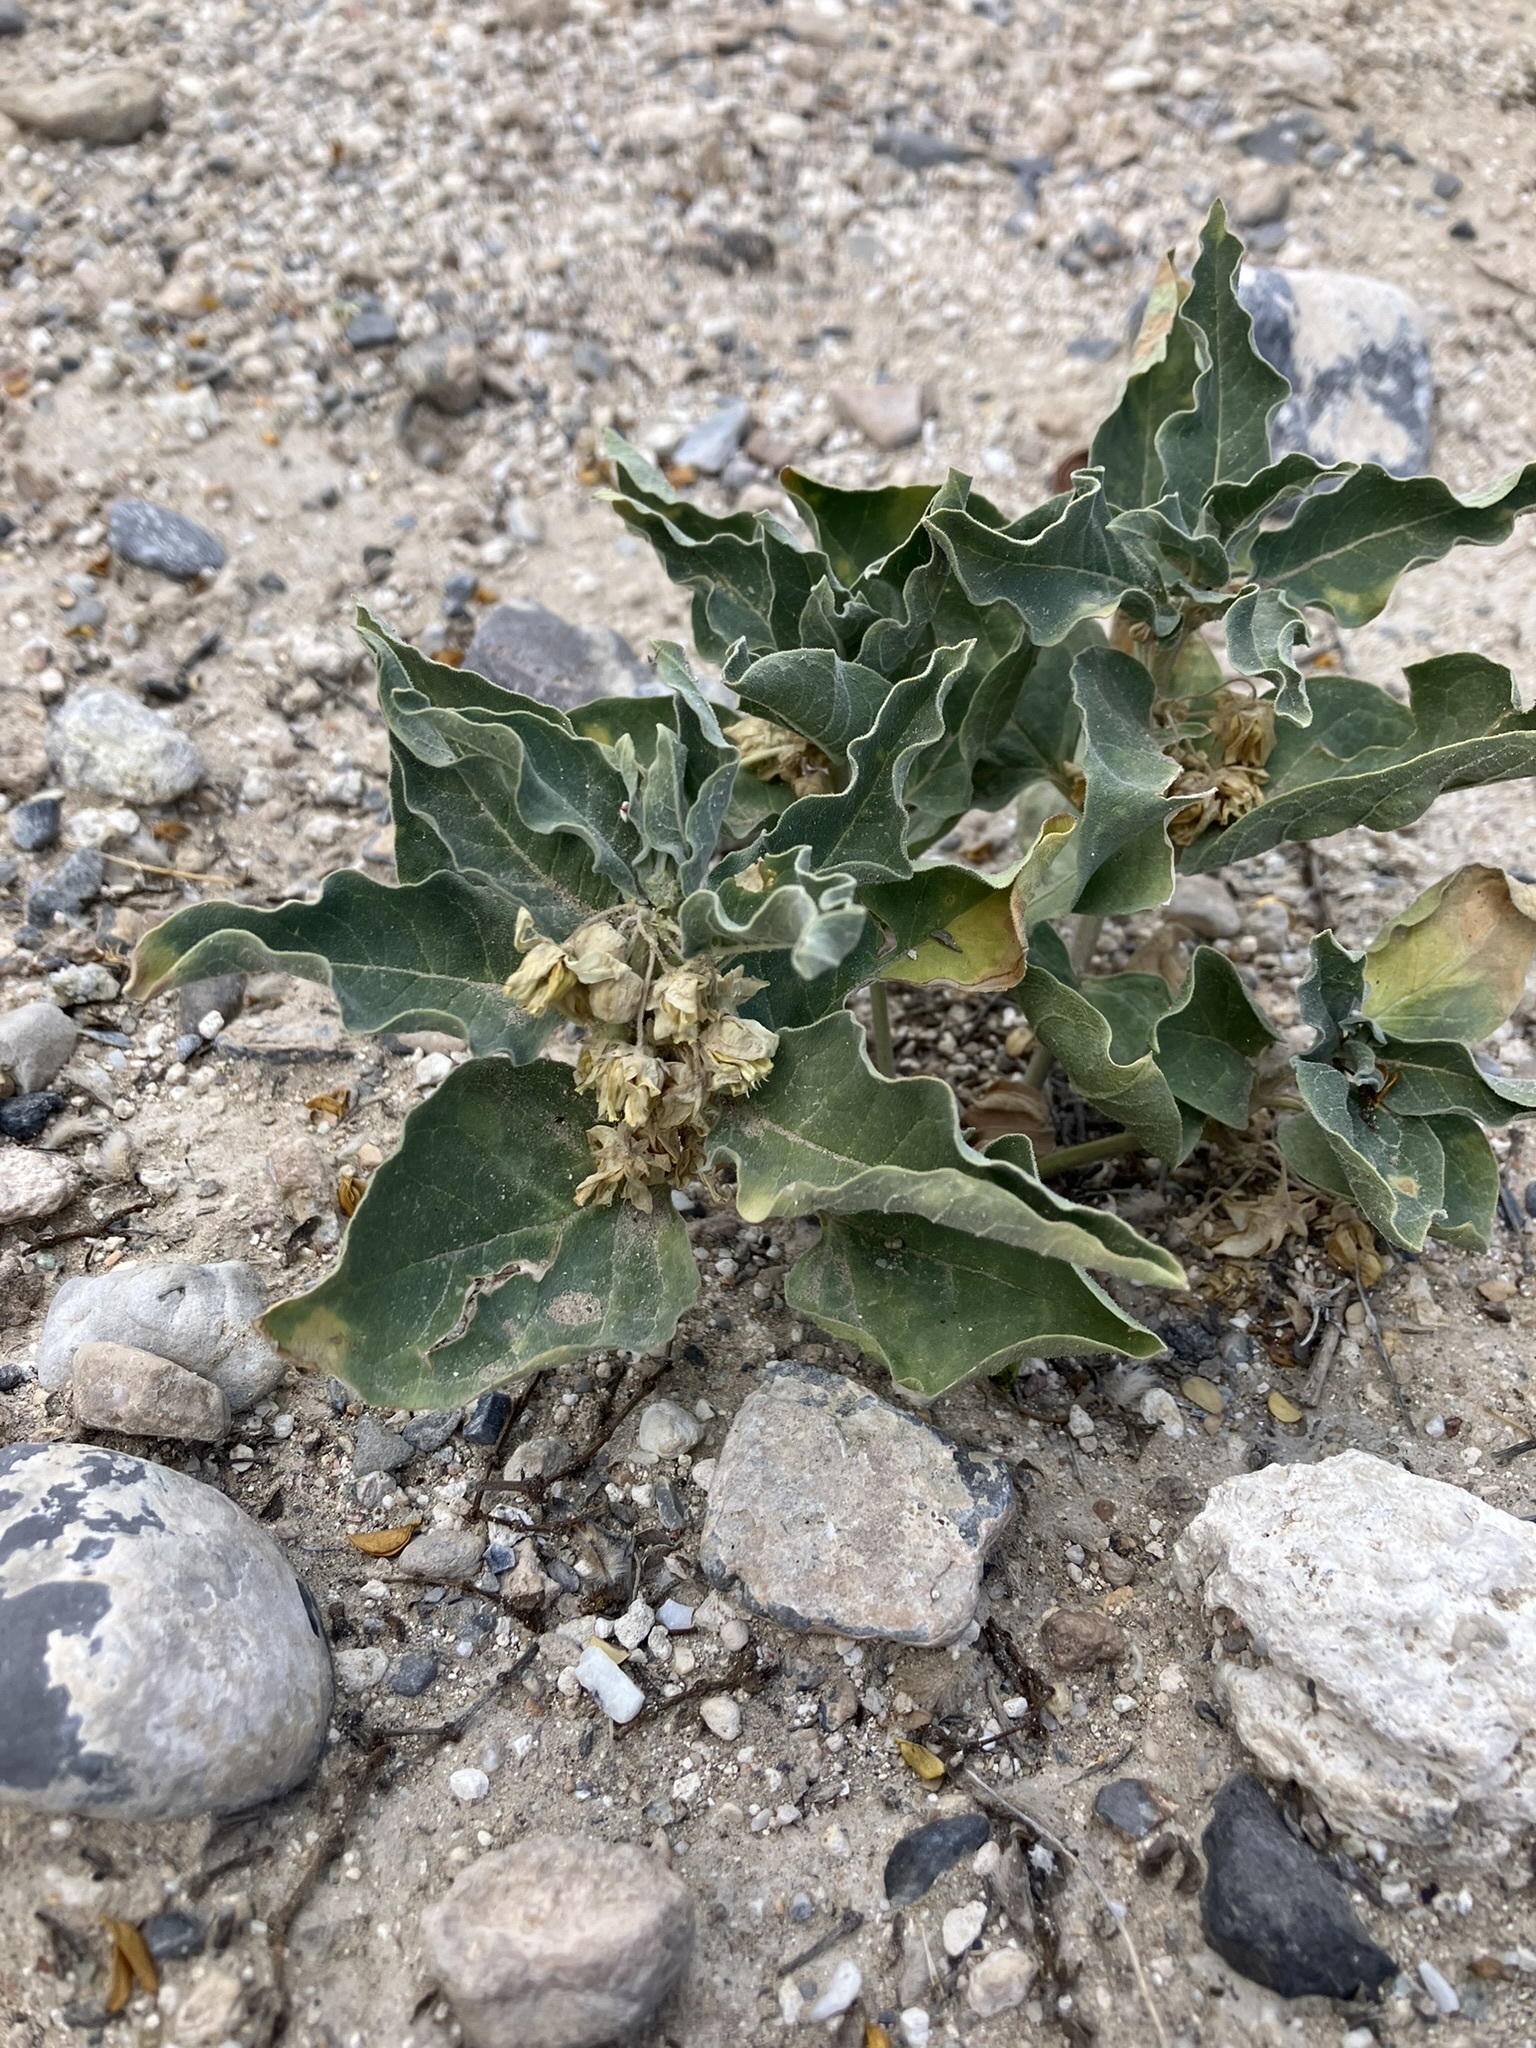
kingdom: Plantae
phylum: Tracheophyta
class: Magnoliopsida
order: Gentianales
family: Apocynaceae
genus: Asclepias
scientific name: Asclepias nyctaginifolia
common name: Mojave milkweed
